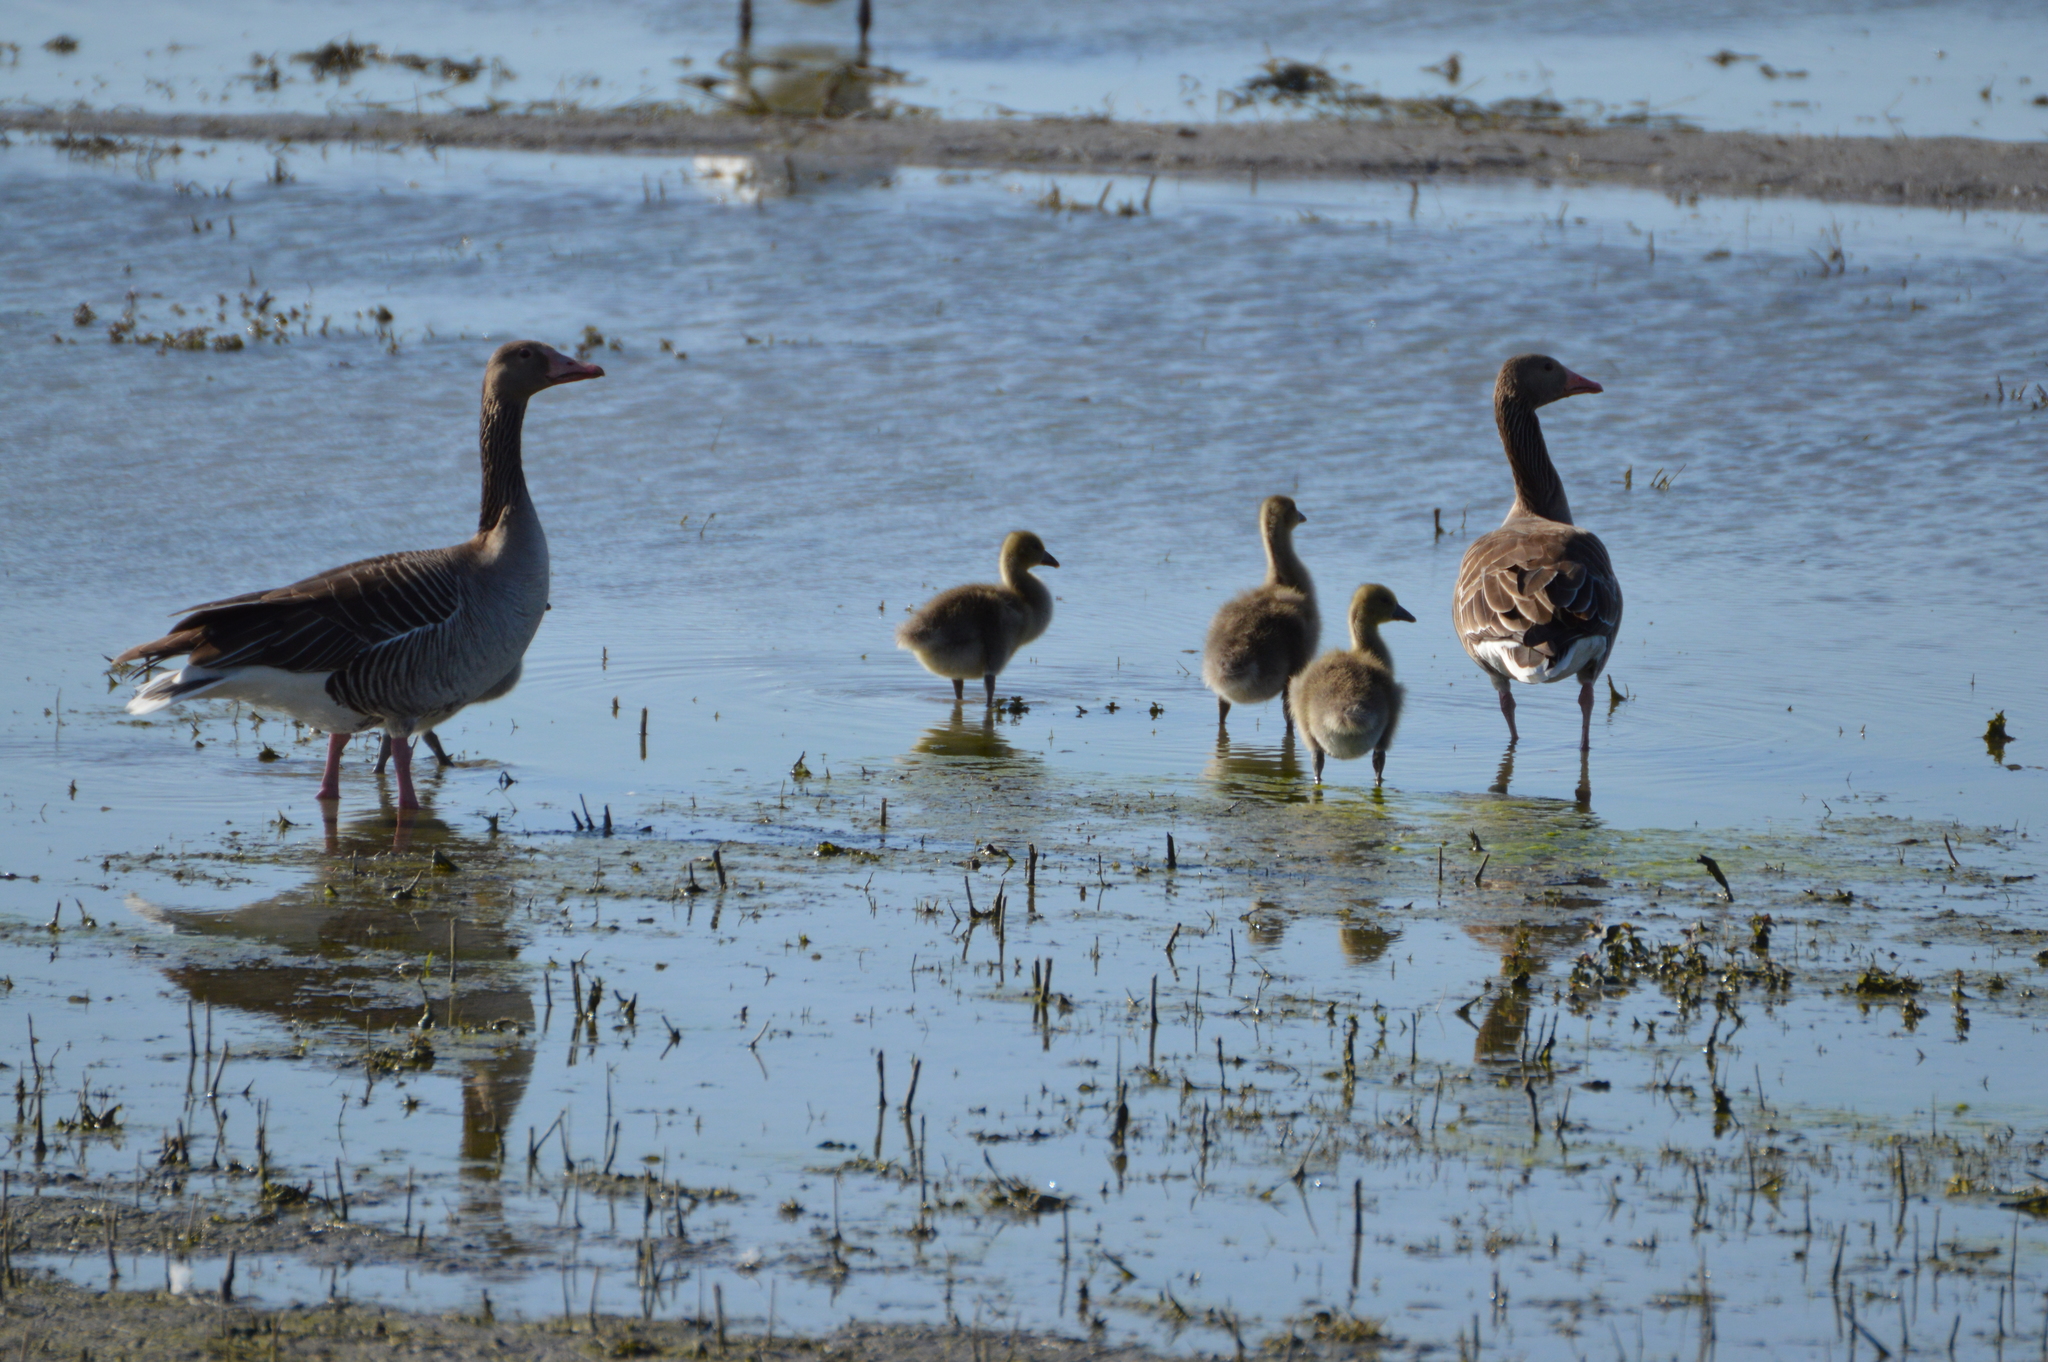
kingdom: Animalia
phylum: Chordata
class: Aves
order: Anseriformes
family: Anatidae
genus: Anser
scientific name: Anser anser
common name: Greylag goose
